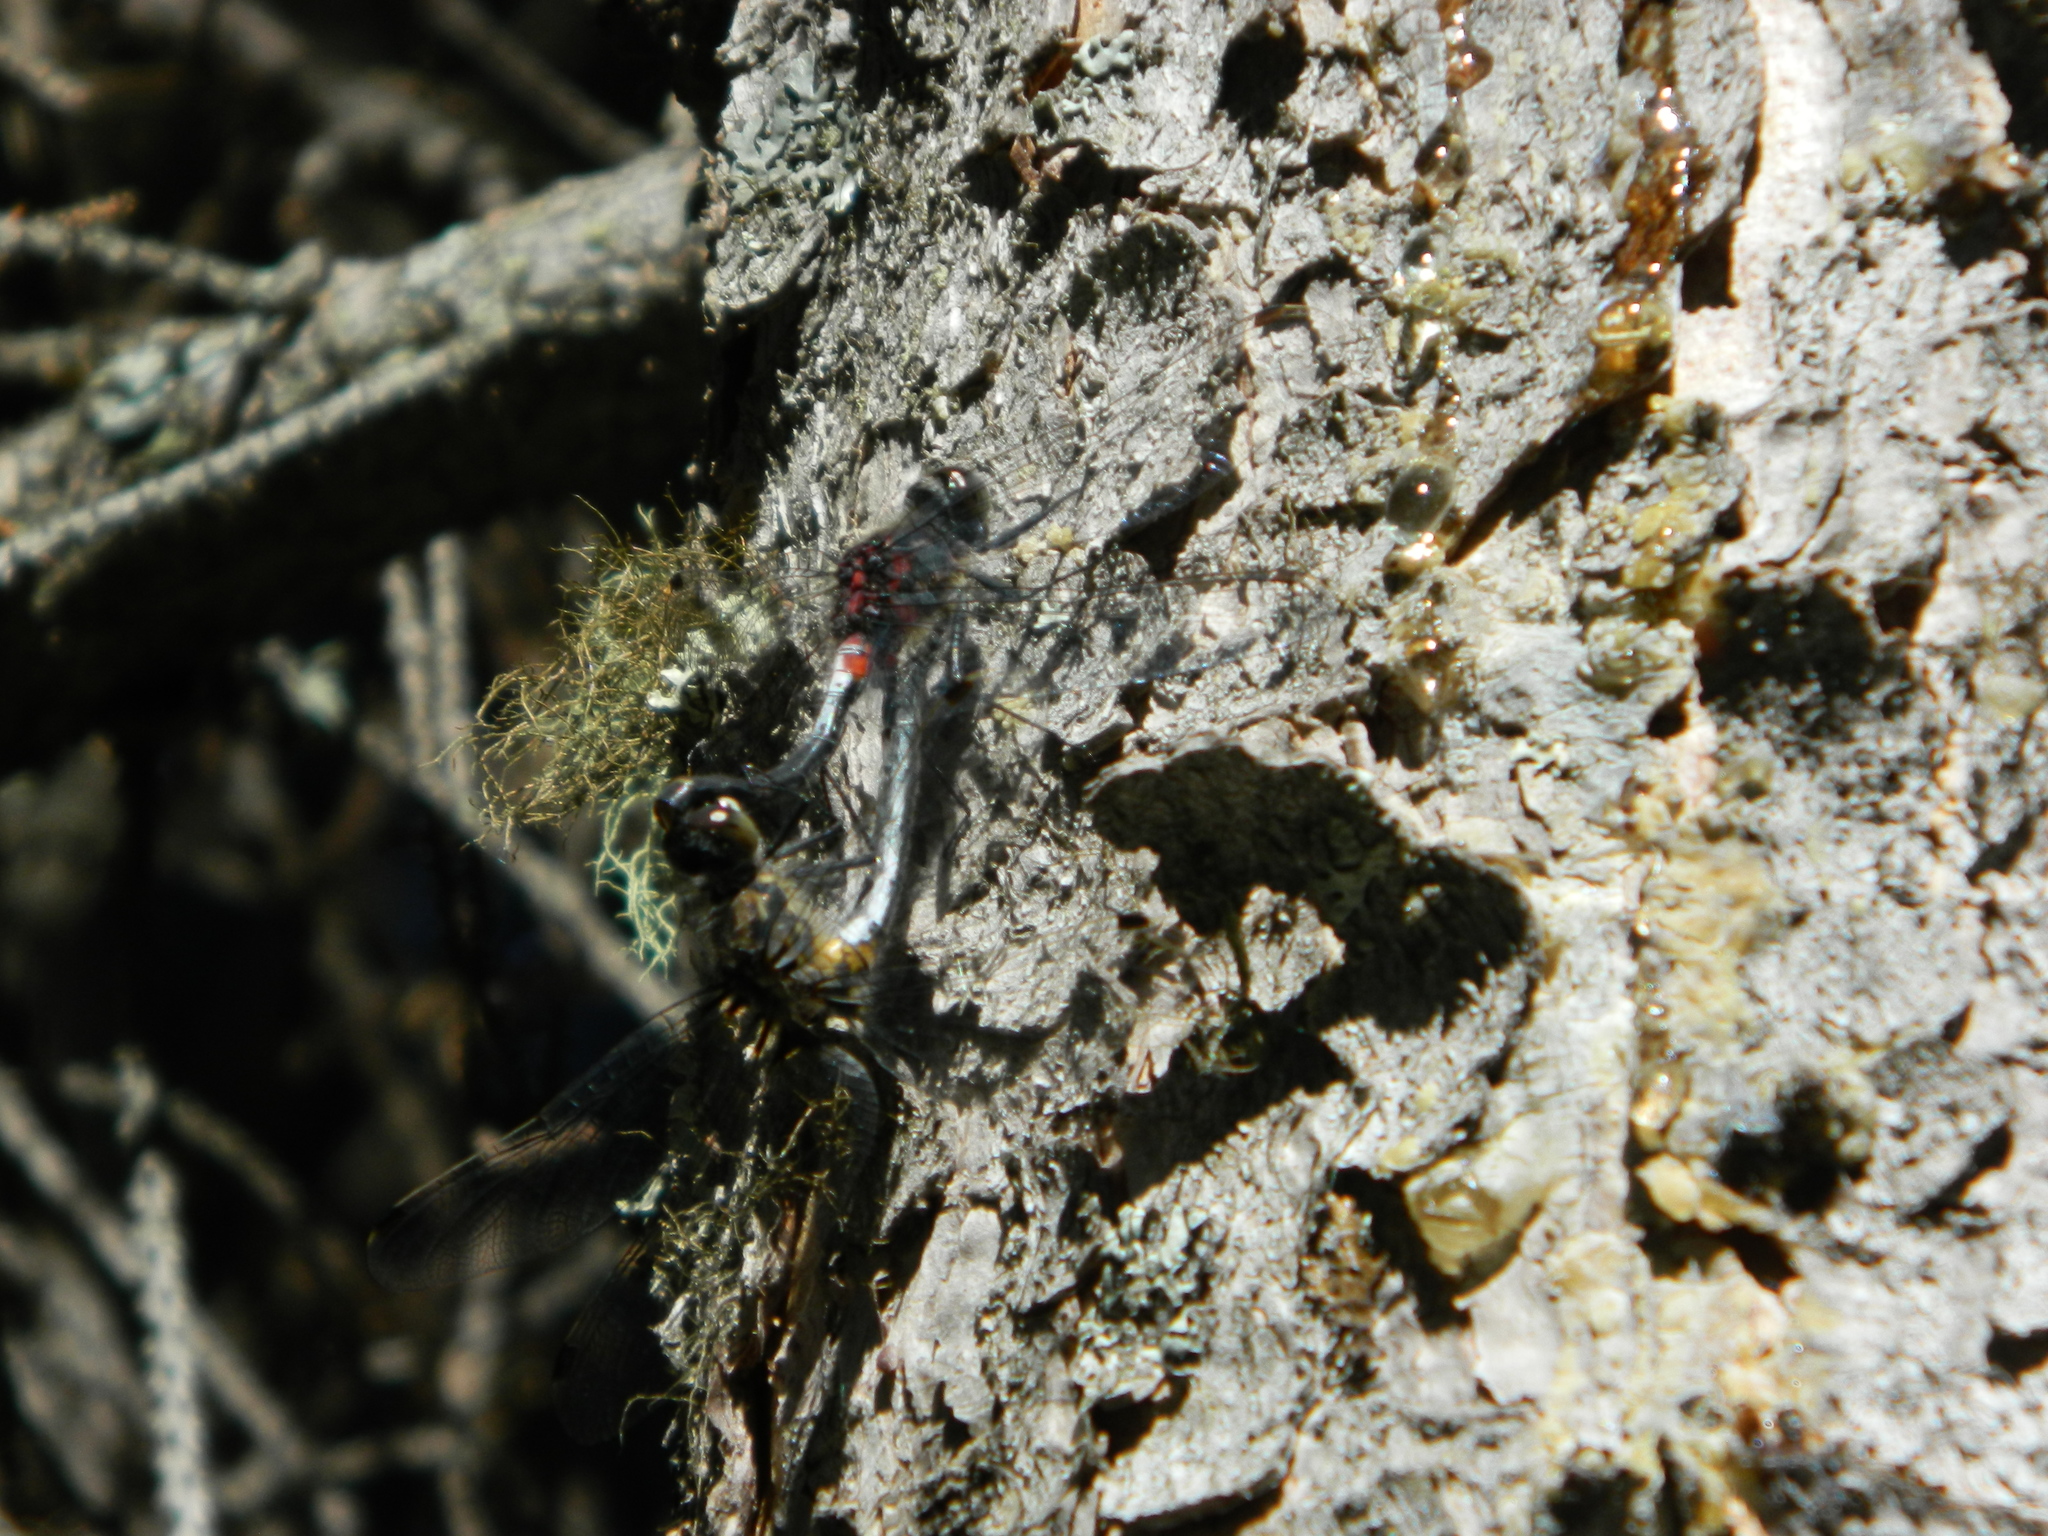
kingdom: Animalia
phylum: Arthropoda
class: Insecta
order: Odonata
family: Libellulidae
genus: Leucorrhinia
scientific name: Leucorrhinia proxima
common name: Belted whiteface
